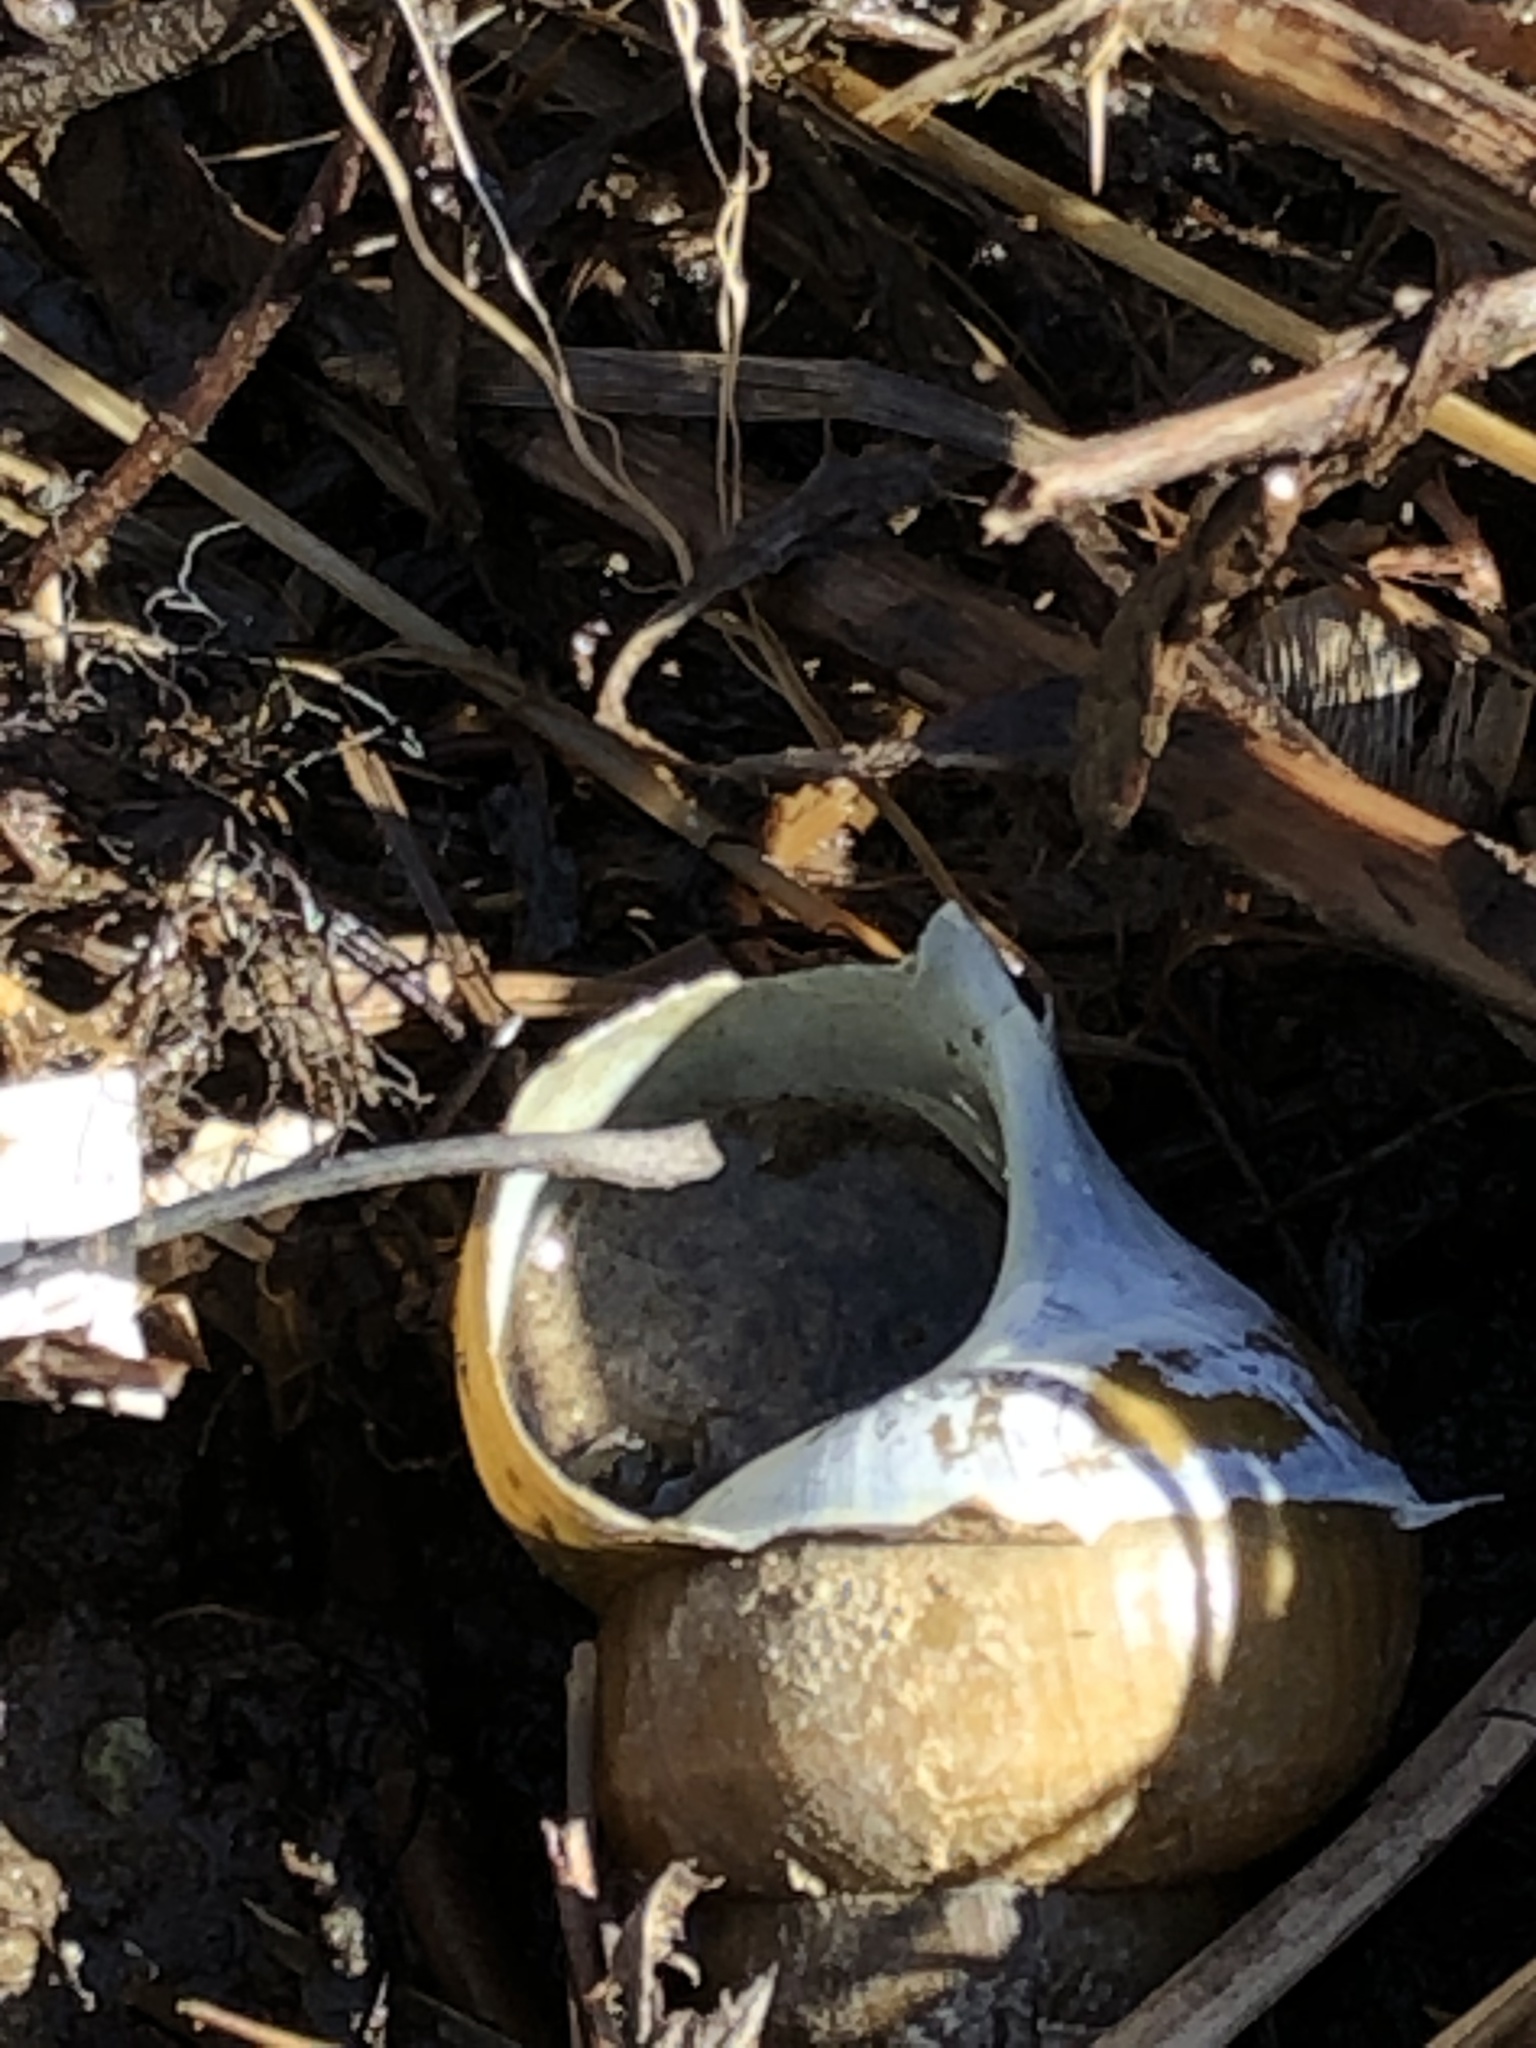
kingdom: Animalia
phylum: Mollusca
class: Gastropoda
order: Architaenioglossa
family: Viviparidae
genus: Cipangopaludina
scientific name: Cipangopaludina chinensis
